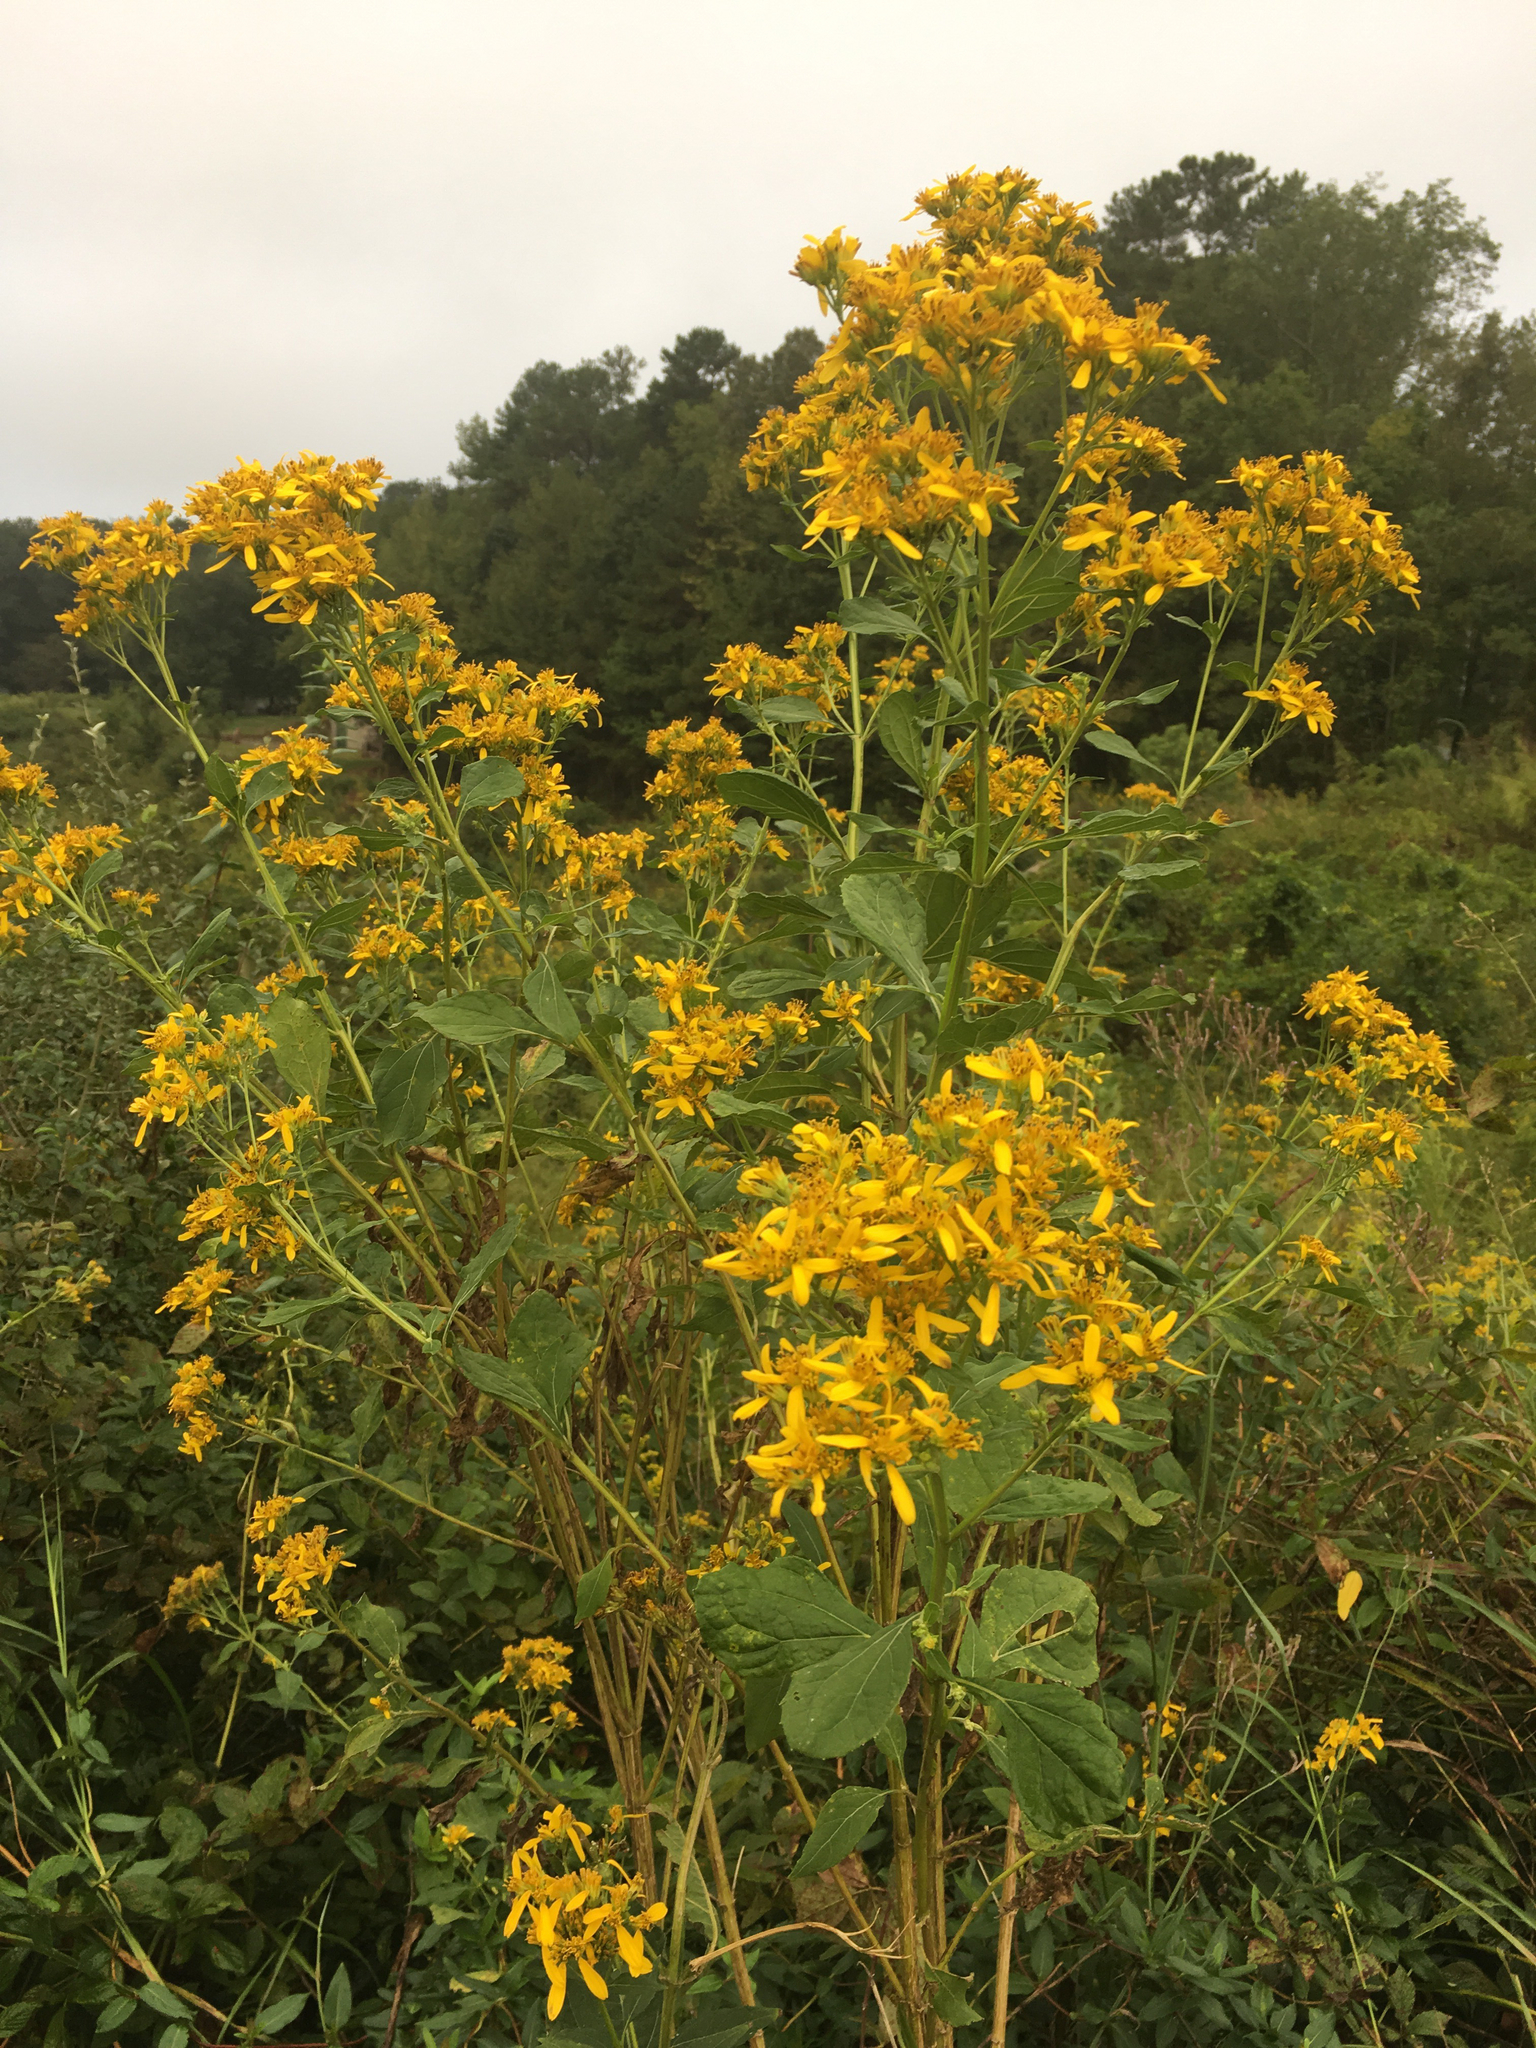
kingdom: Plantae
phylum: Tracheophyta
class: Magnoliopsida
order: Asterales
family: Asteraceae
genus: Verbesina
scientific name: Verbesina occidentalis
